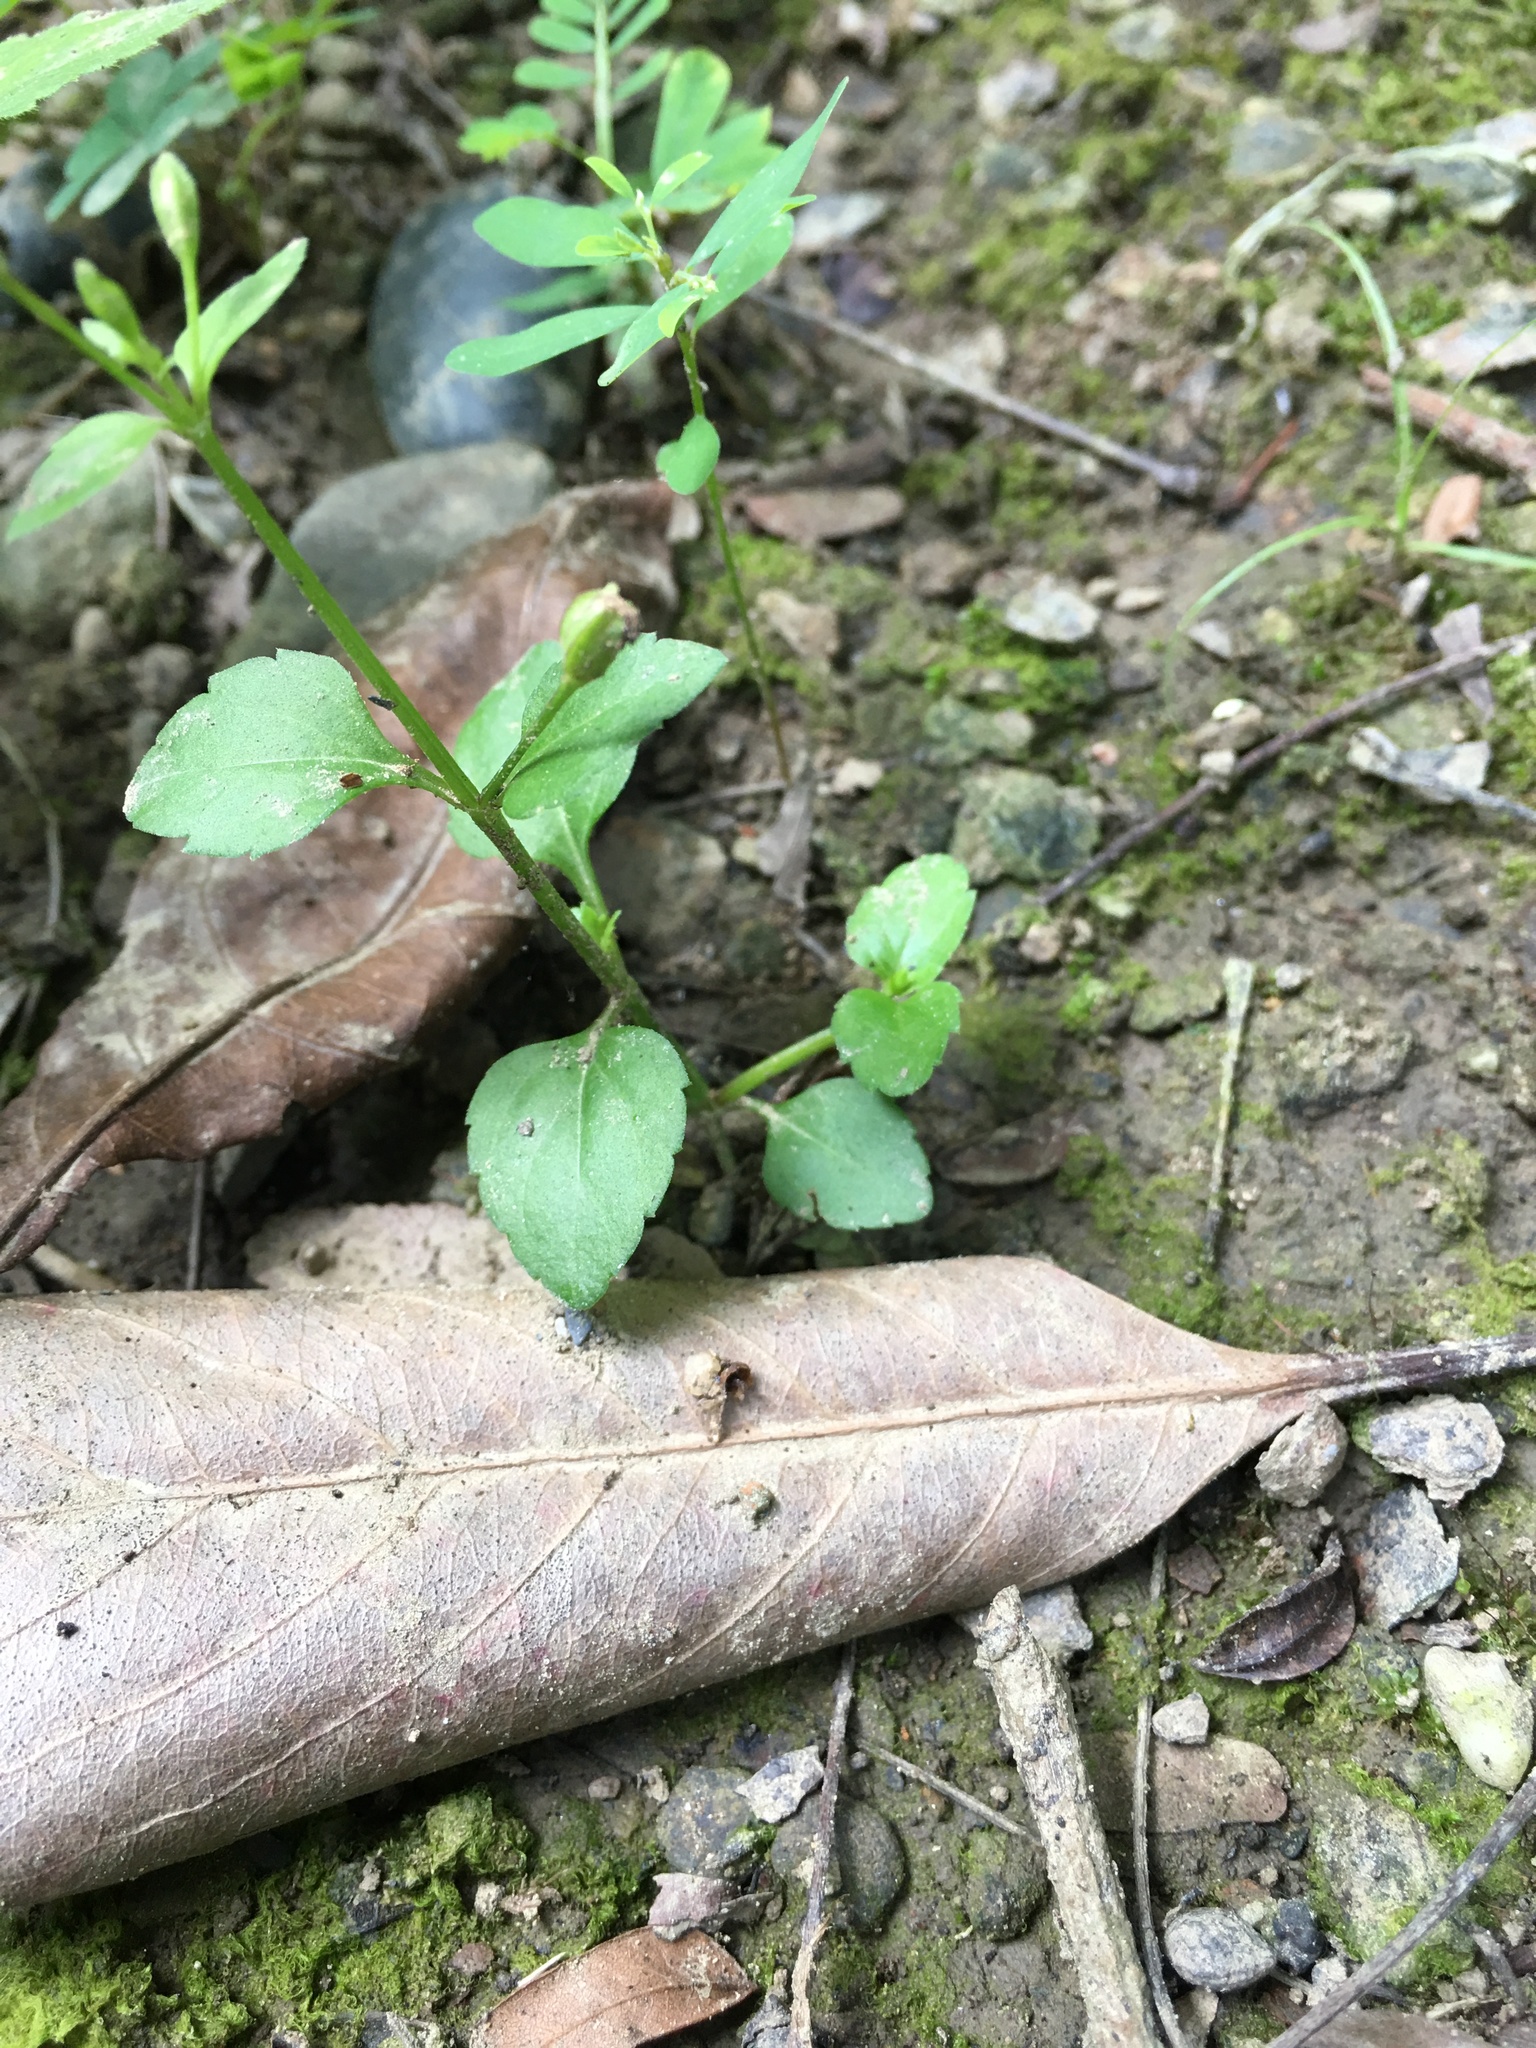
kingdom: Plantae
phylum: Tracheophyta
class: Magnoliopsida
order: Lamiales
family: Linderniaceae
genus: Torenia
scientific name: Torenia crustacea
